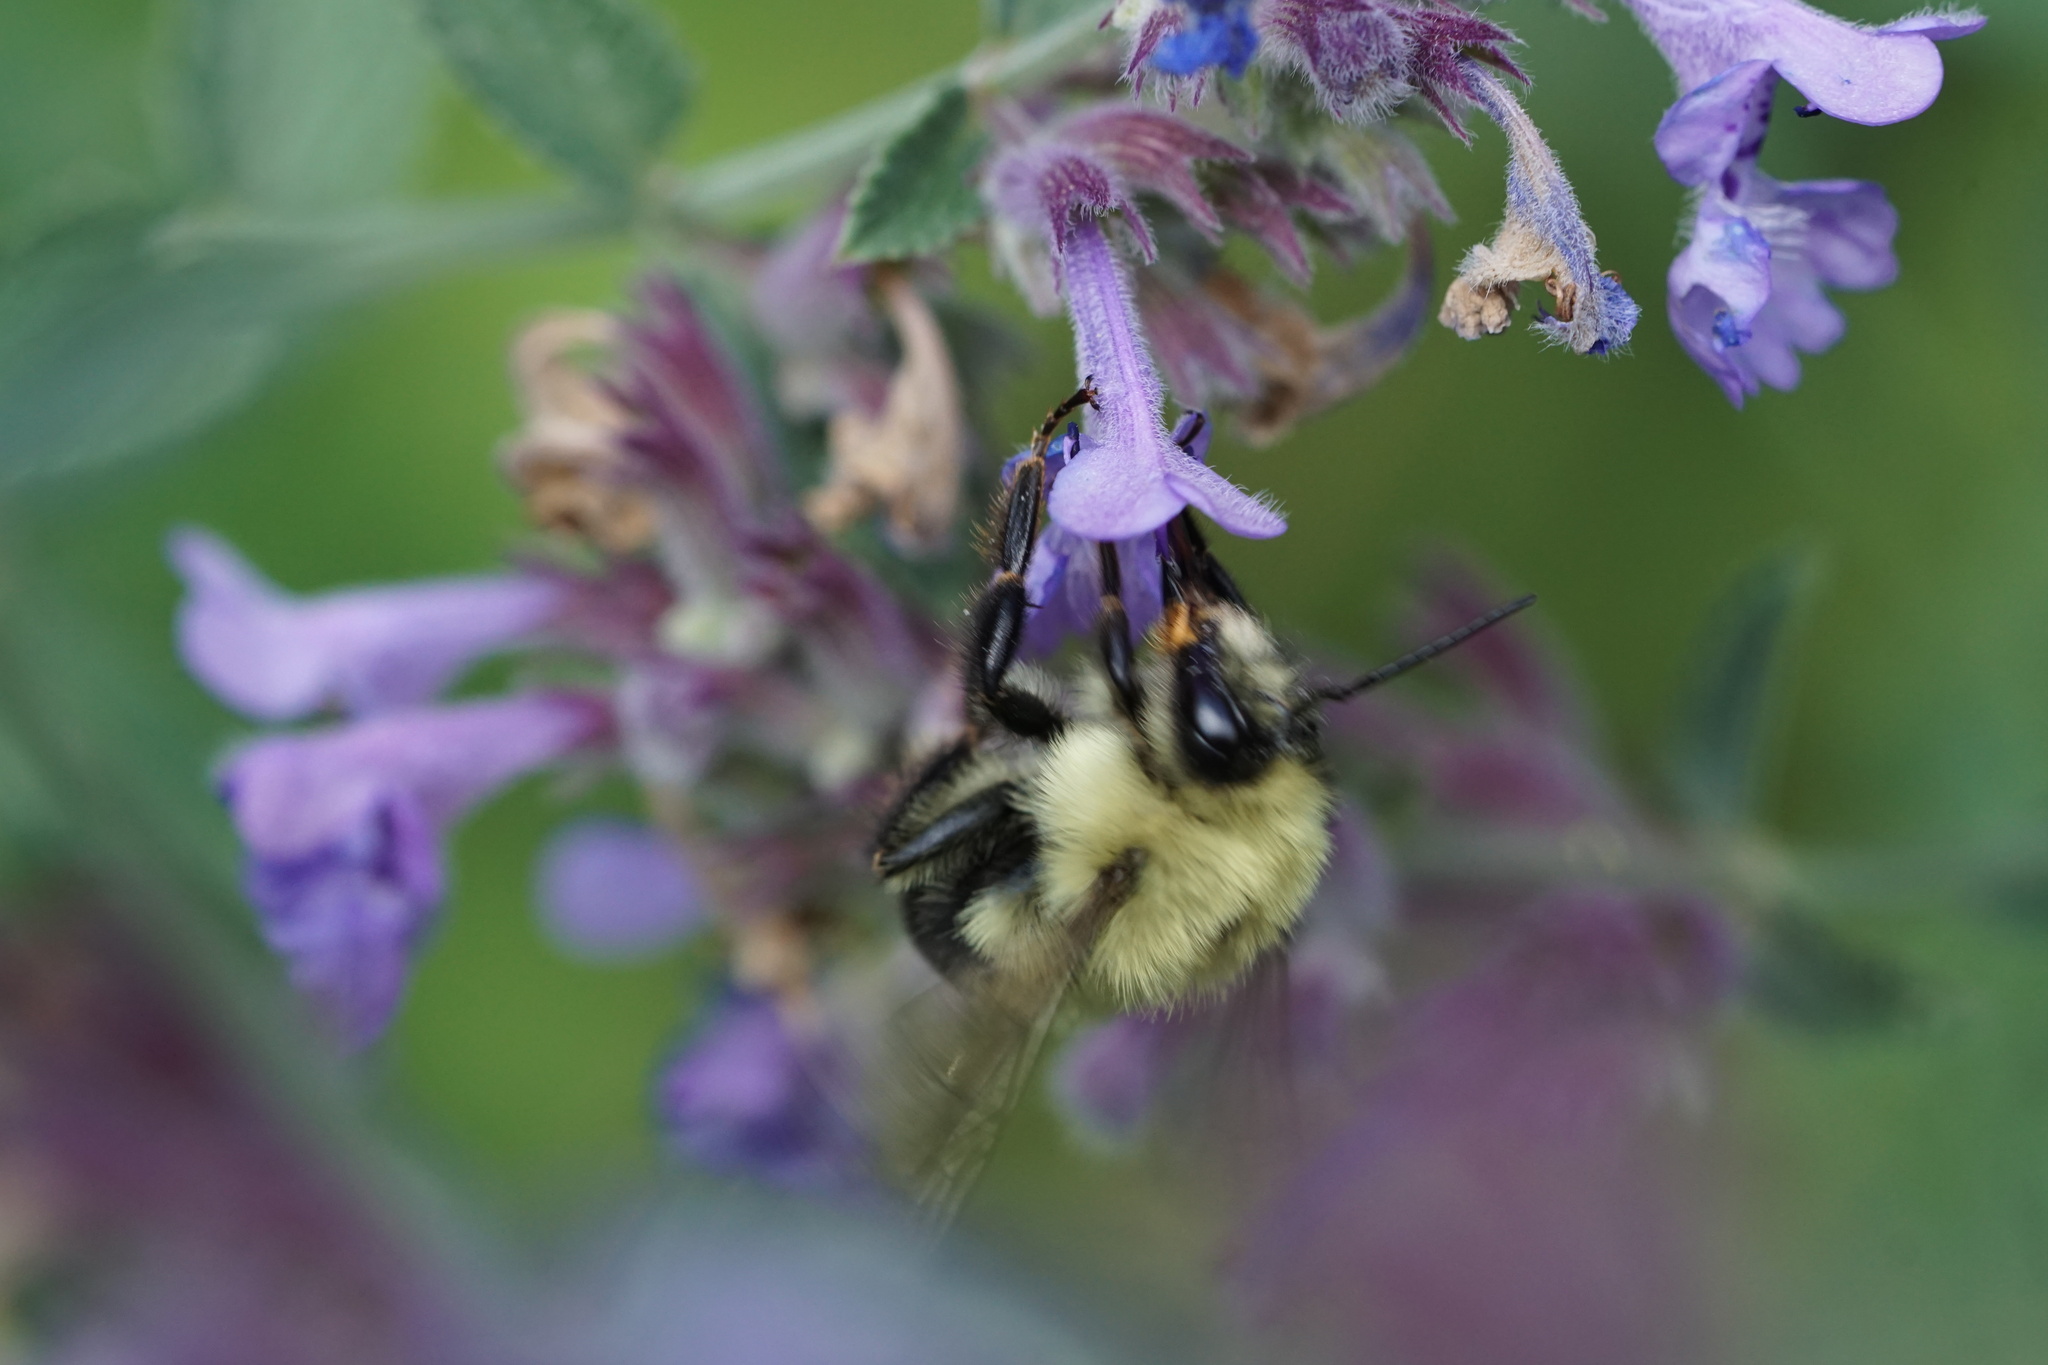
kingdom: Animalia
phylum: Arthropoda
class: Insecta
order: Hymenoptera
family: Apidae
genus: Bombus
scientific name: Bombus bimaculatus
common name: Two-spotted bumble bee
